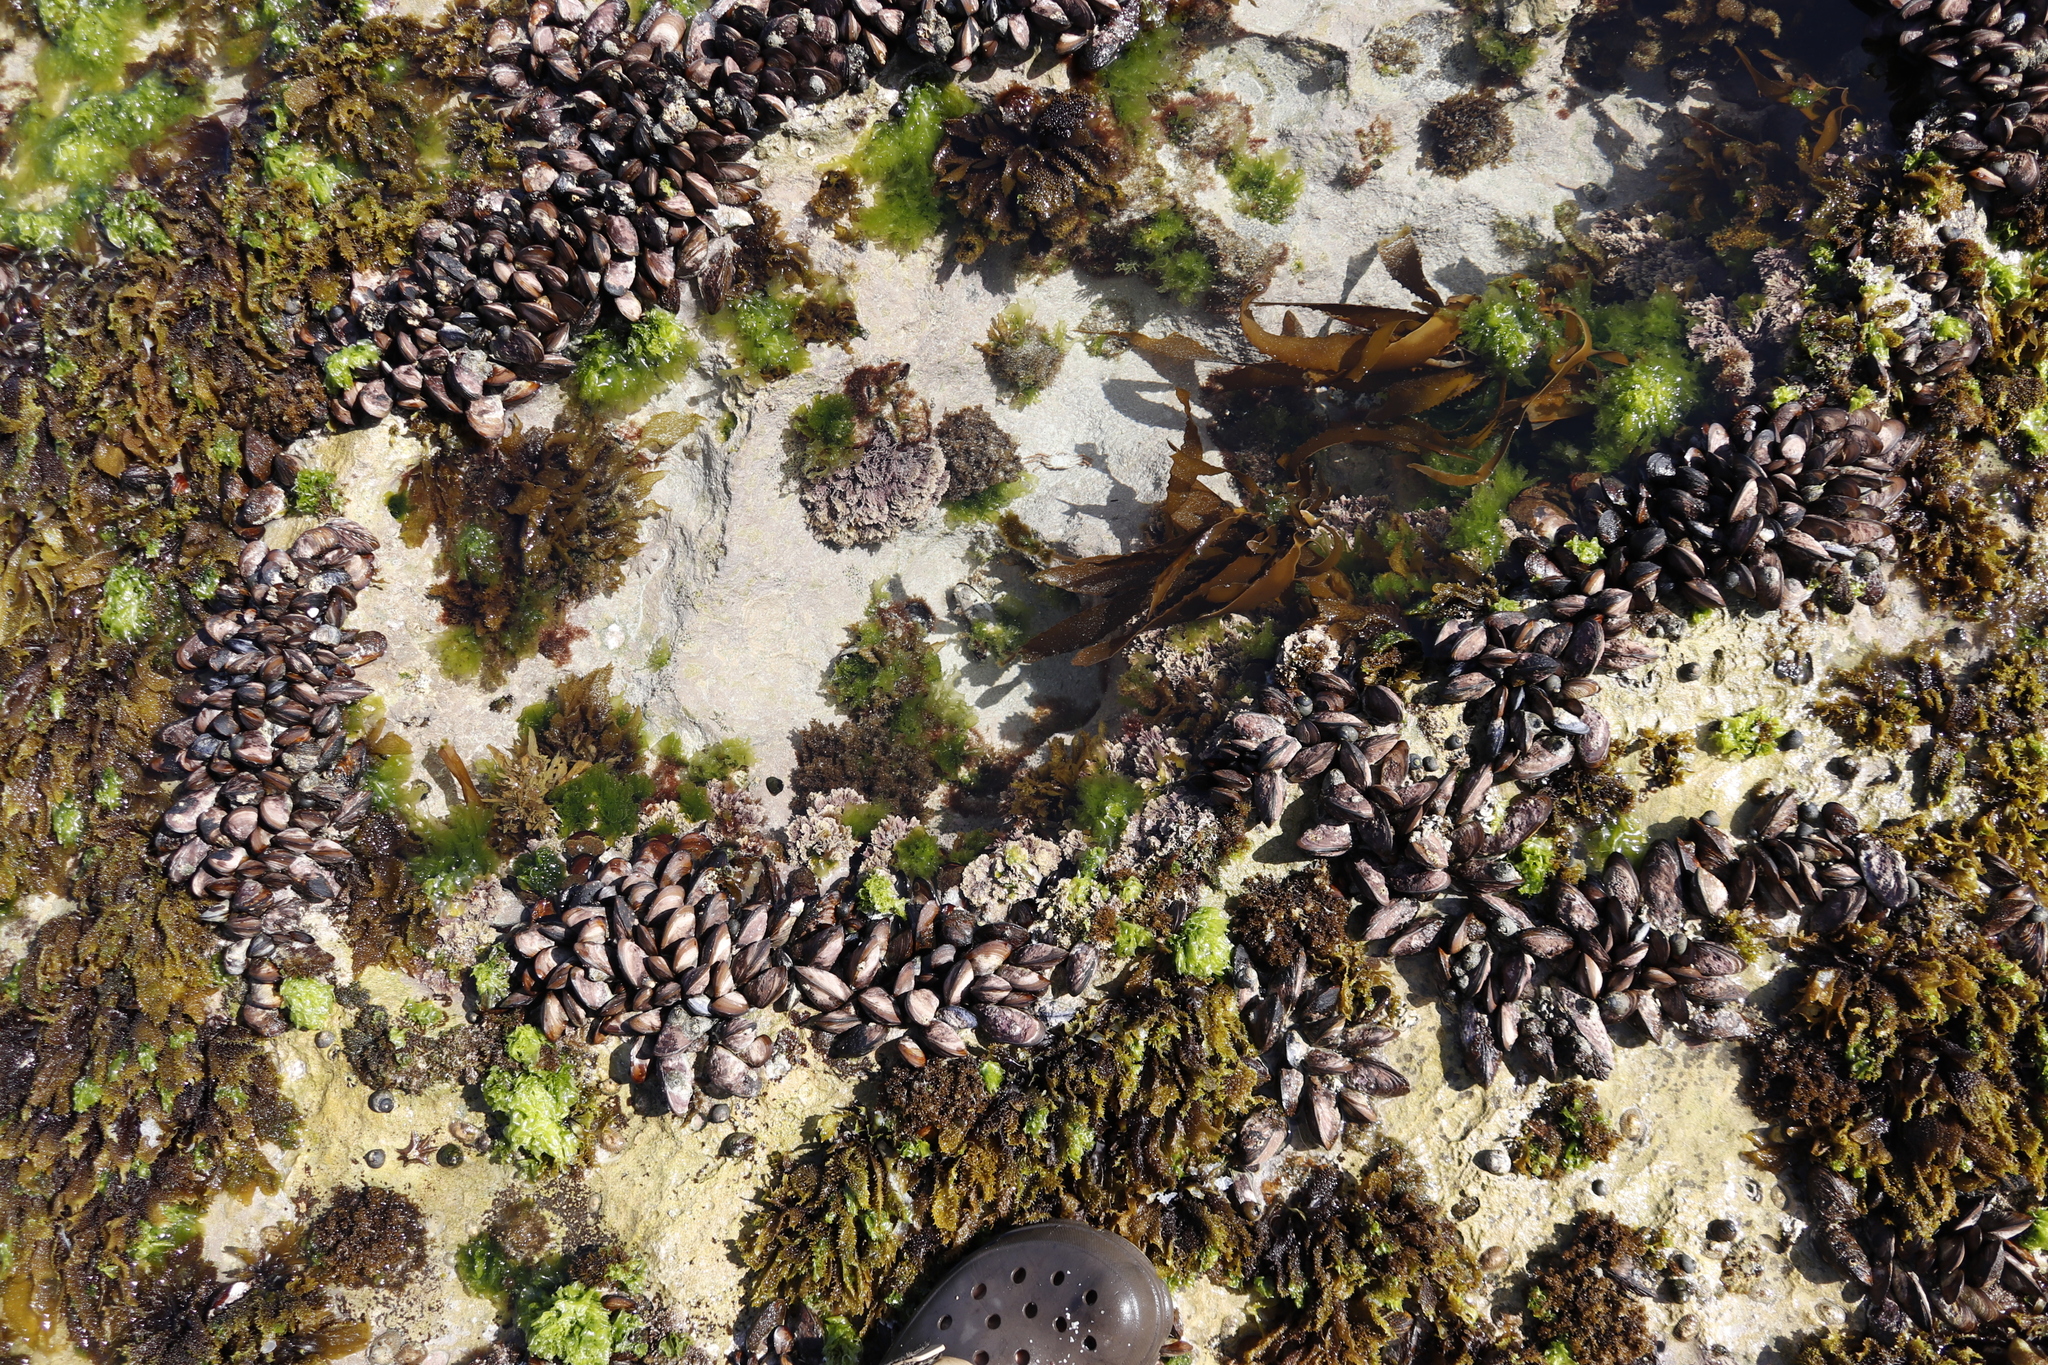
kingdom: Animalia
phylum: Mollusca
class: Bivalvia
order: Mytilida
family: Mytilidae
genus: Perna
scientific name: Perna perna
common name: Mexilhao mussel
